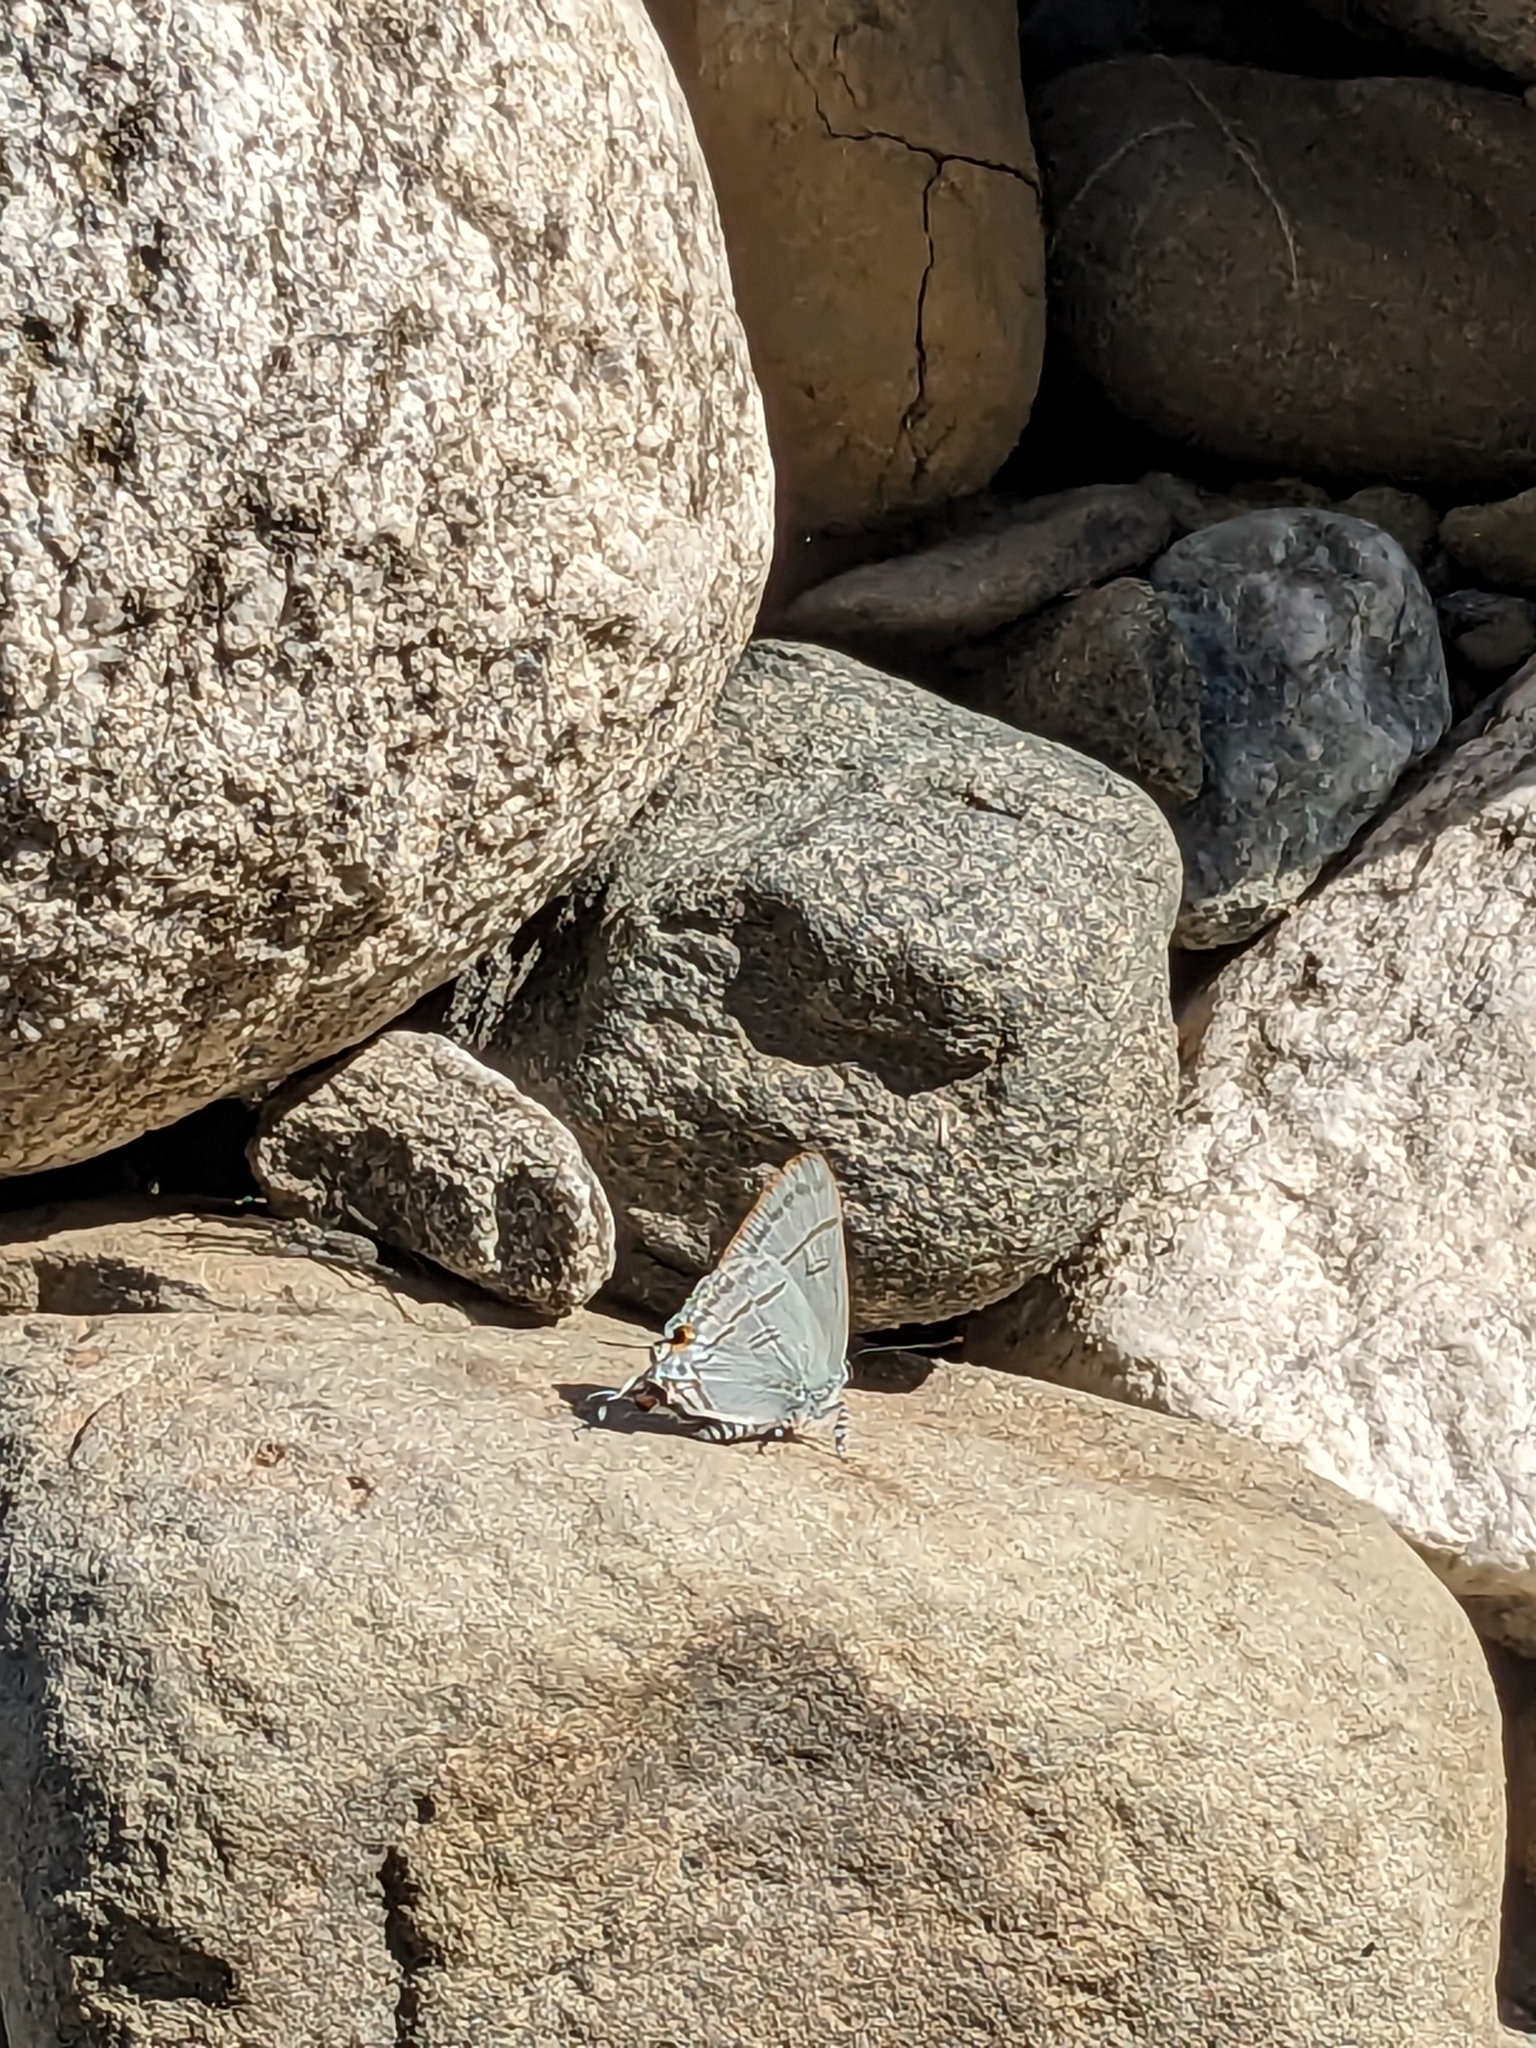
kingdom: Animalia
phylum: Arthropoda
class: Insecta
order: Lepidoptera
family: Lycaenidae
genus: Hypolycaena
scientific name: Hypolycaena erylus
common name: Common tit
